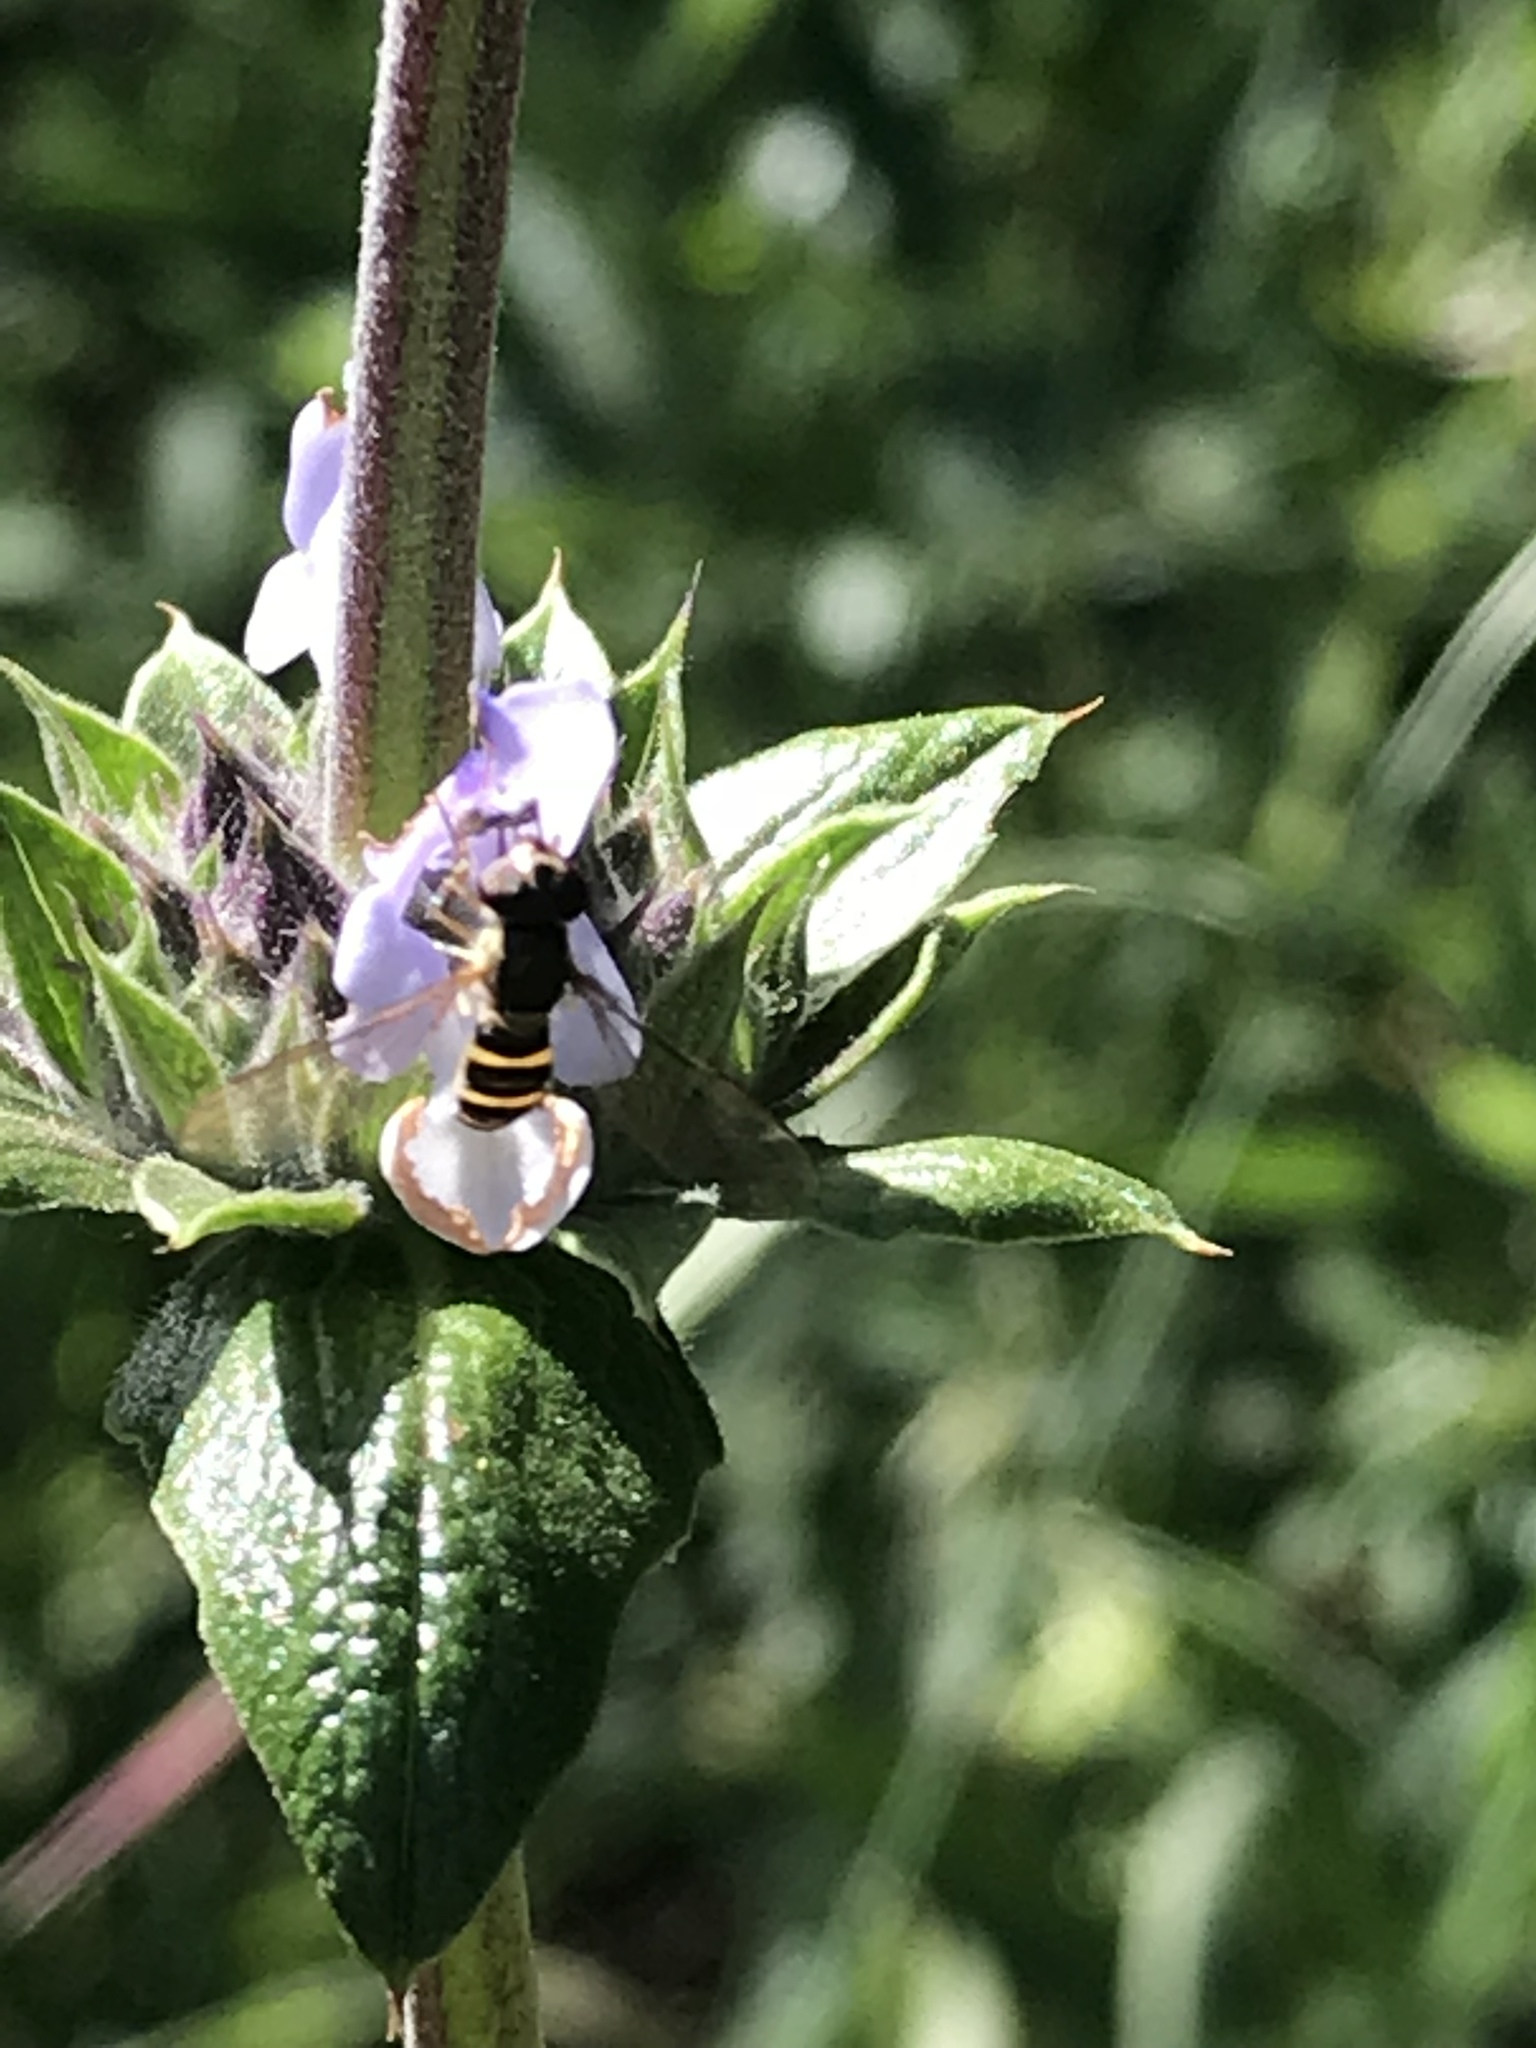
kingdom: Animalia
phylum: Arthropoda
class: Insecta
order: Diptera
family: Syrphidae
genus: Fazia
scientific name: Fazia micrura
